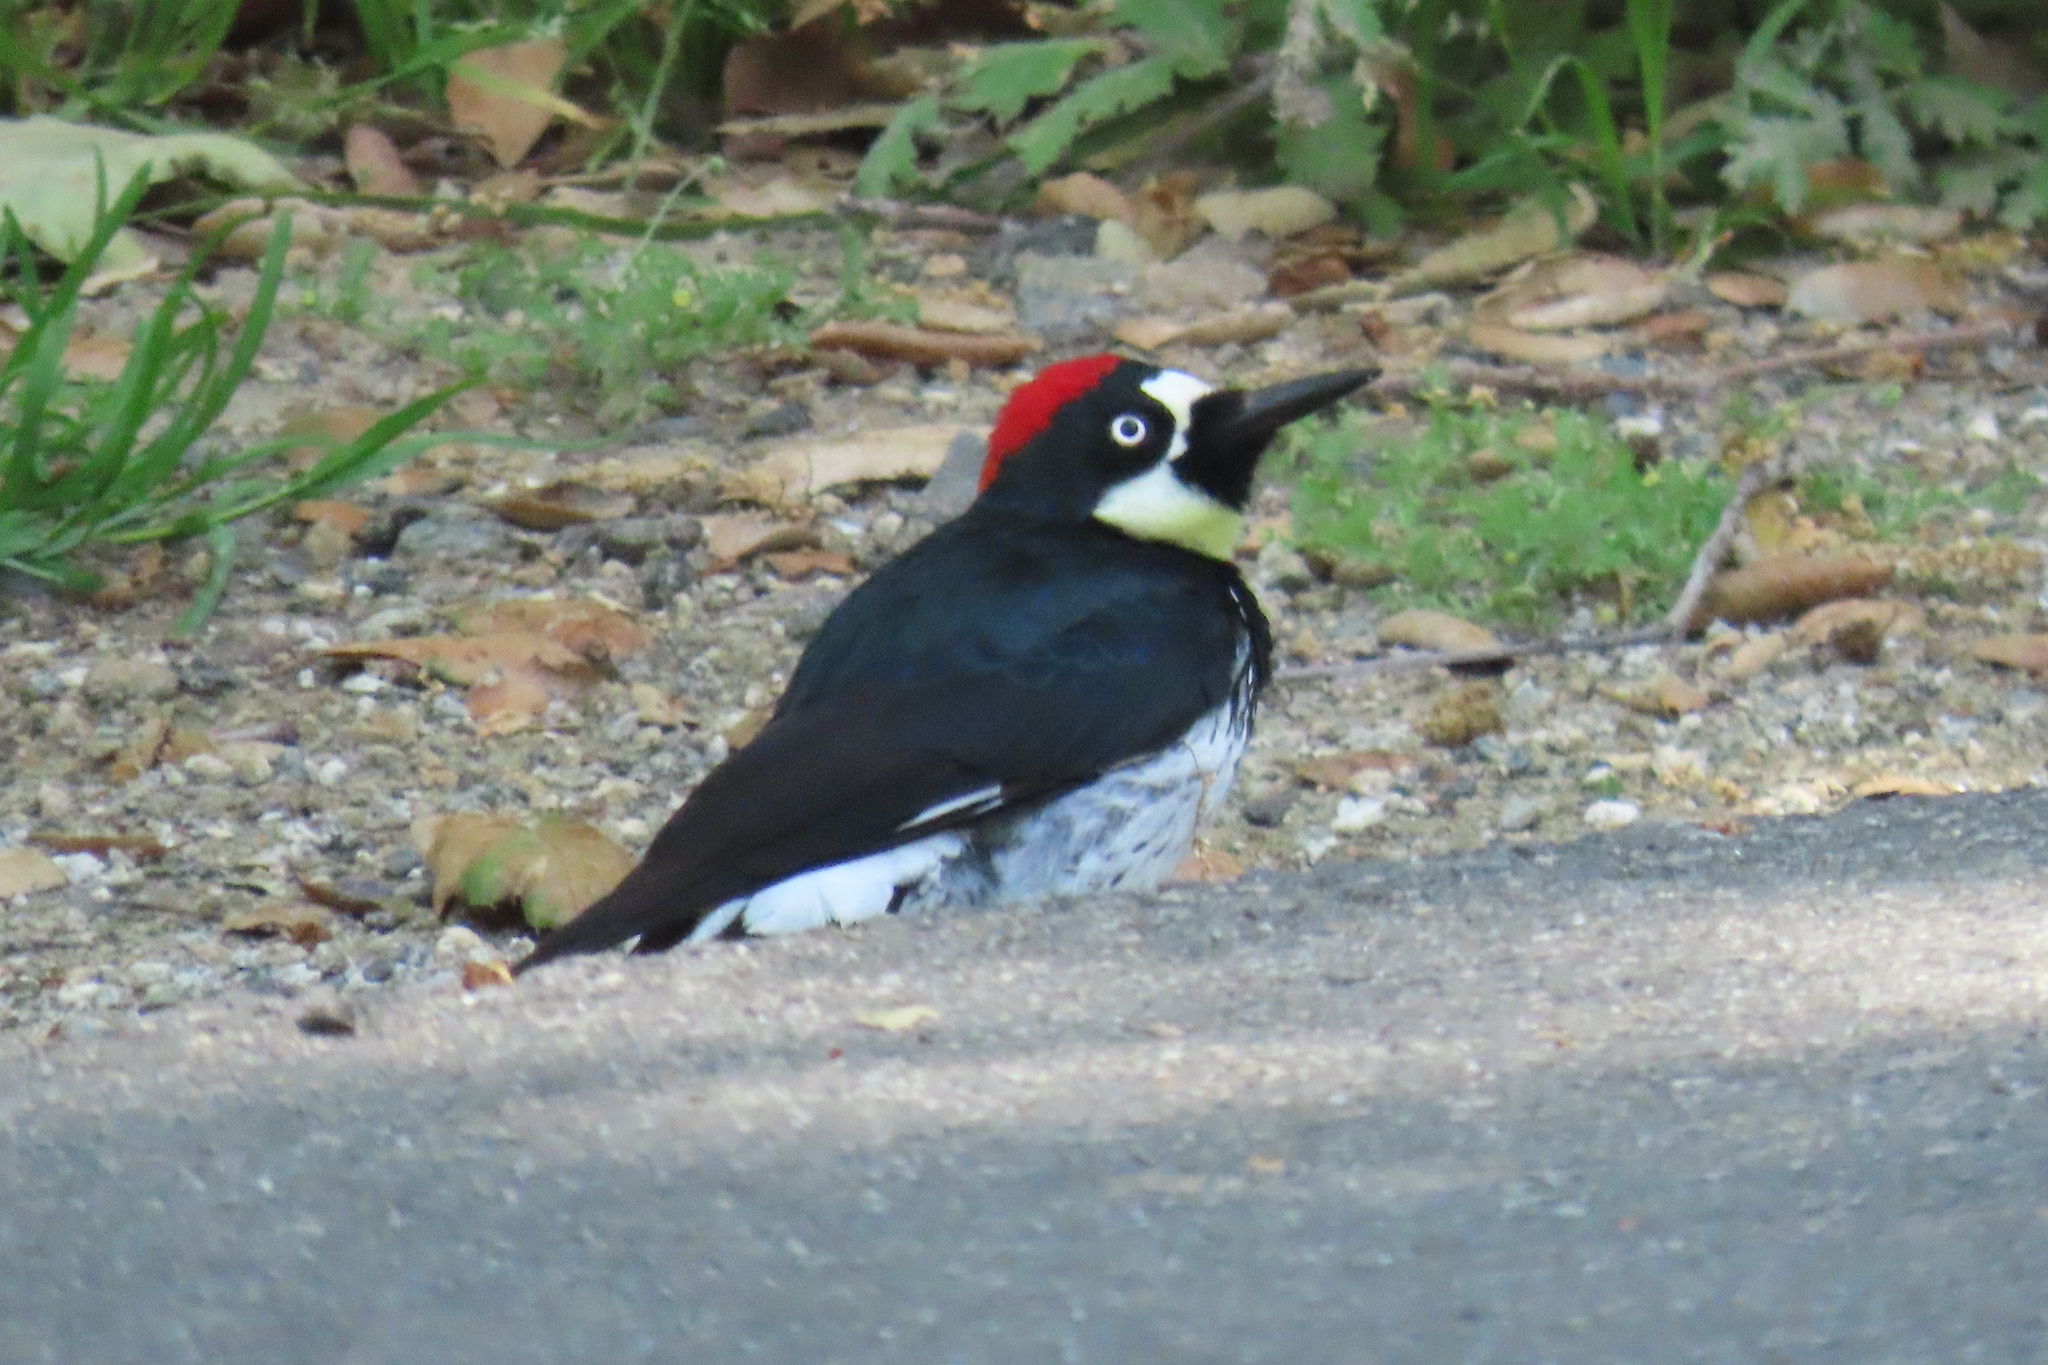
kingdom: Animalia
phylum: Chordata
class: Aves
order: Piciformes
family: Picidae
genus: Melanerpes
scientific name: Melanerpes formicivorus
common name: Acorn woodpecker
